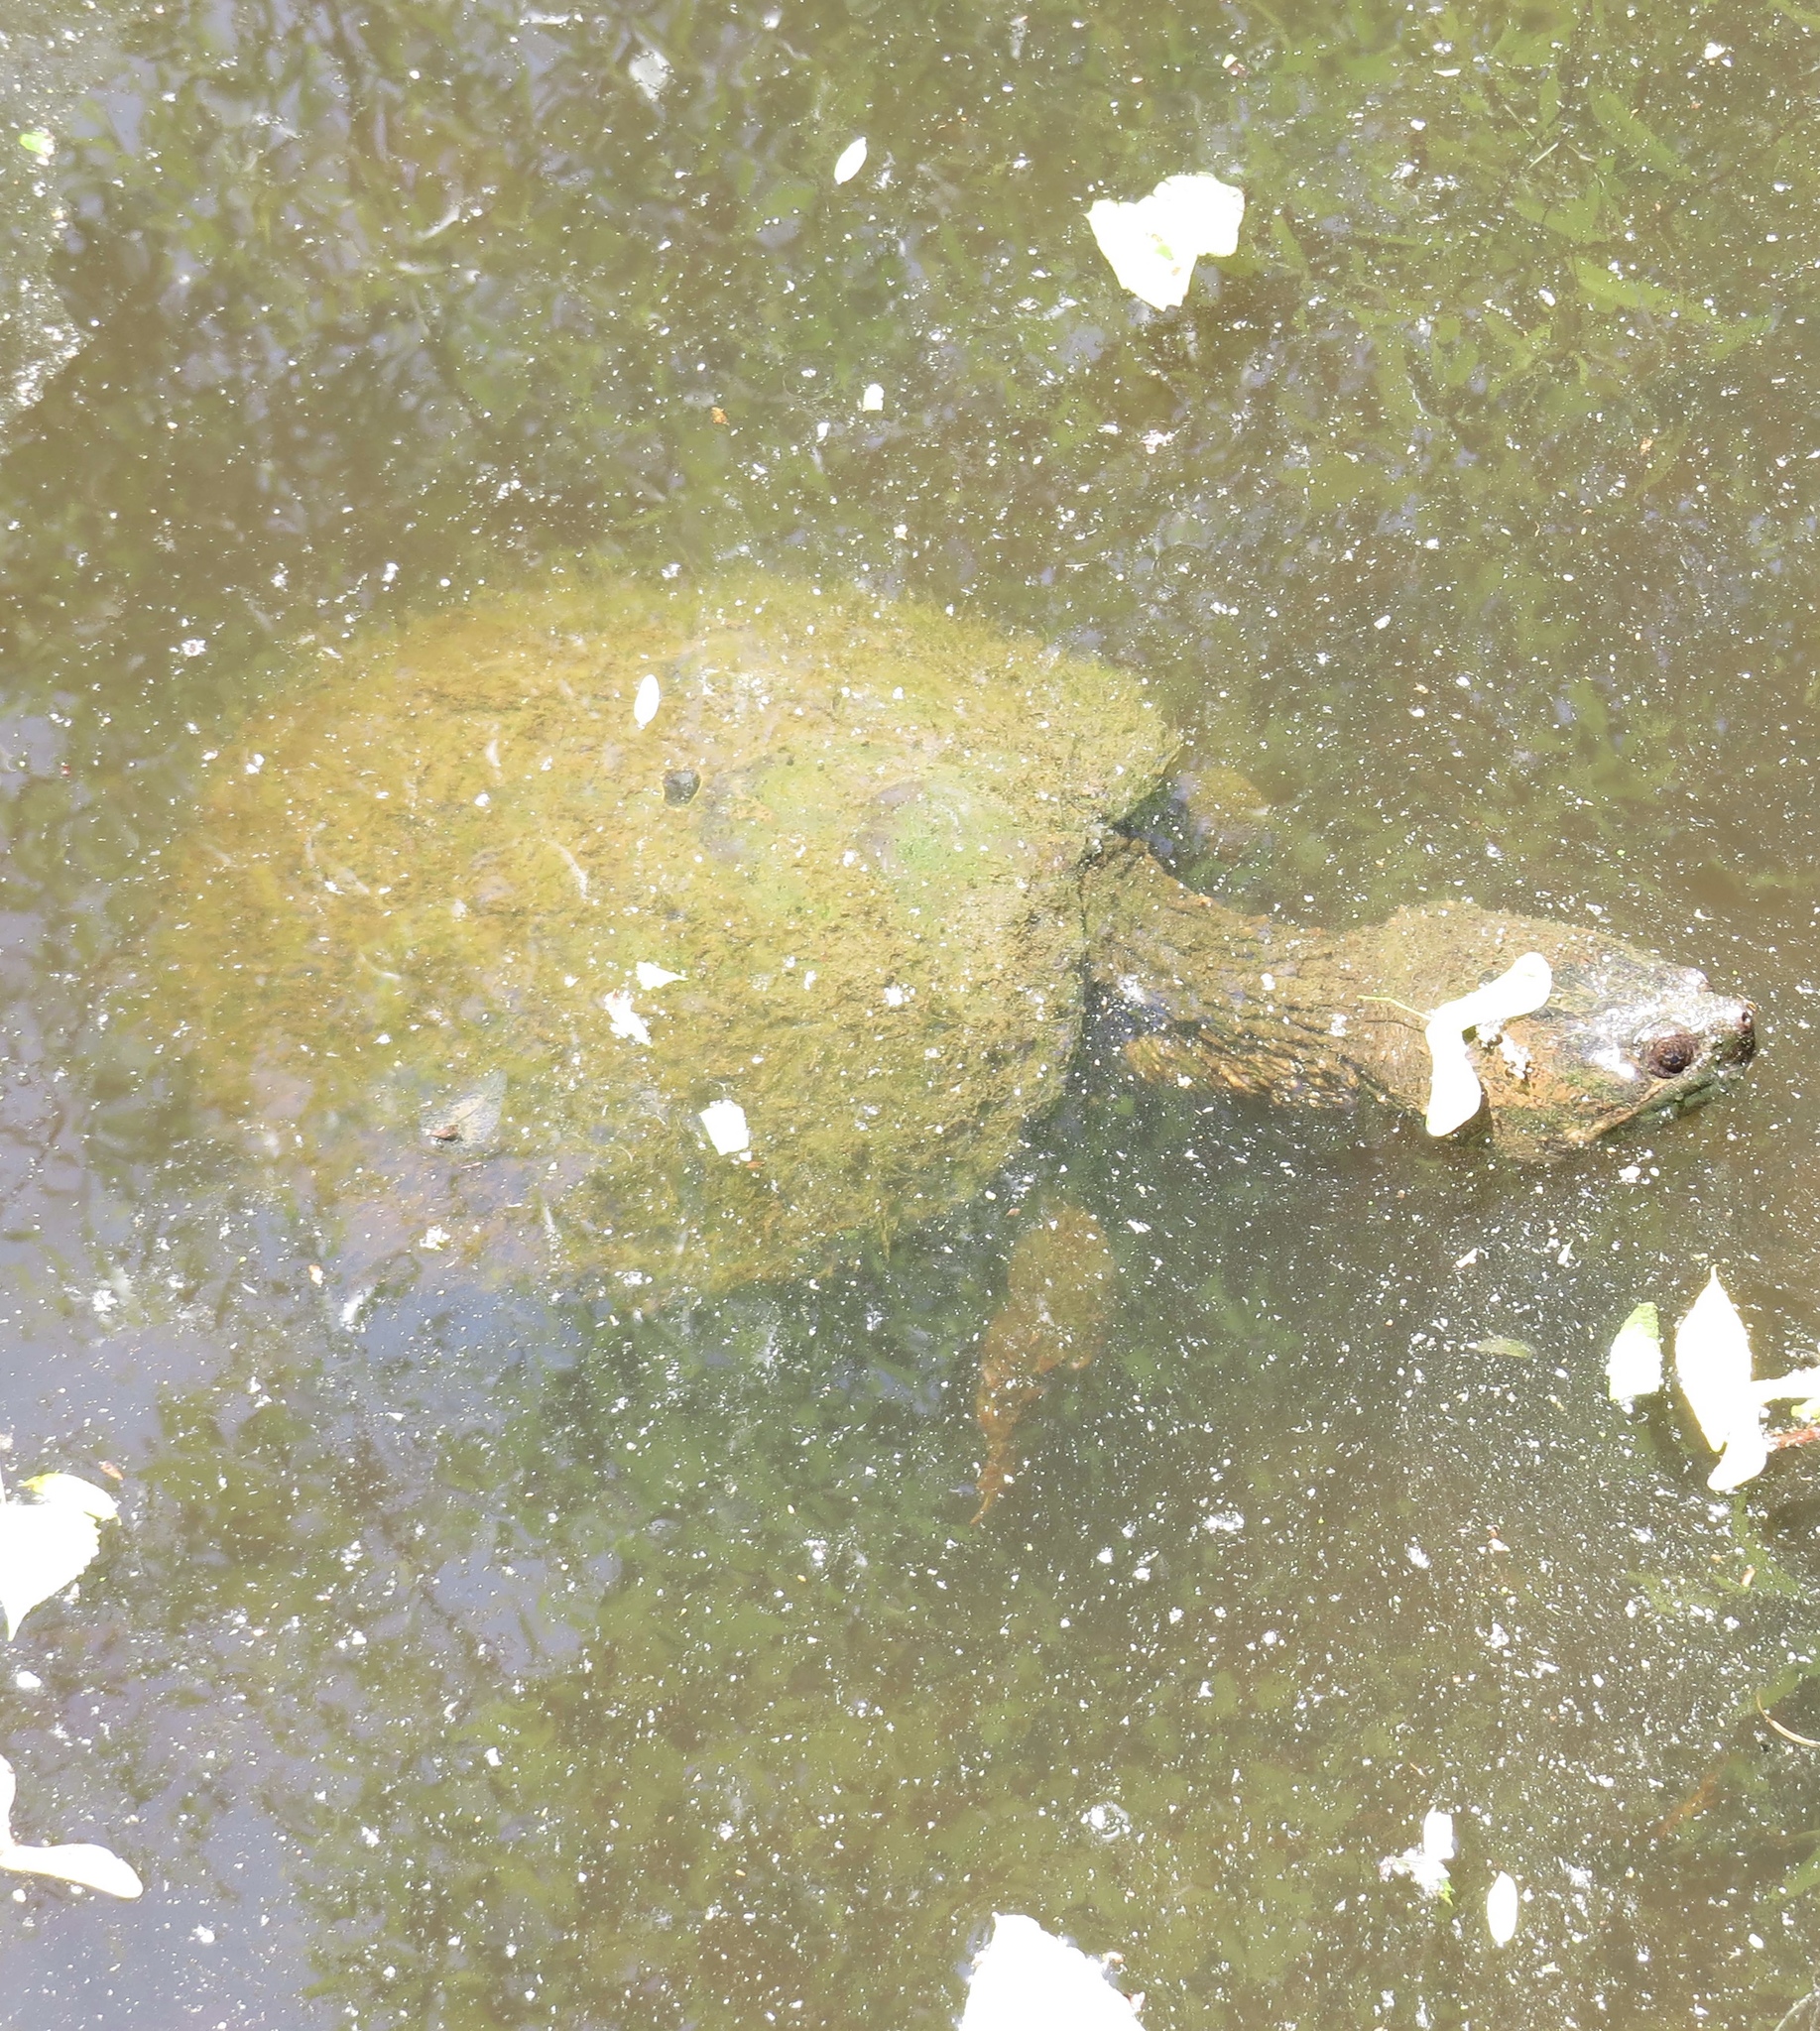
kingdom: Animalia
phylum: Chordata
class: Testudines
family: Chelydridae
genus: Chelydra
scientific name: Chelydra serpentina
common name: Common snapping turtle
